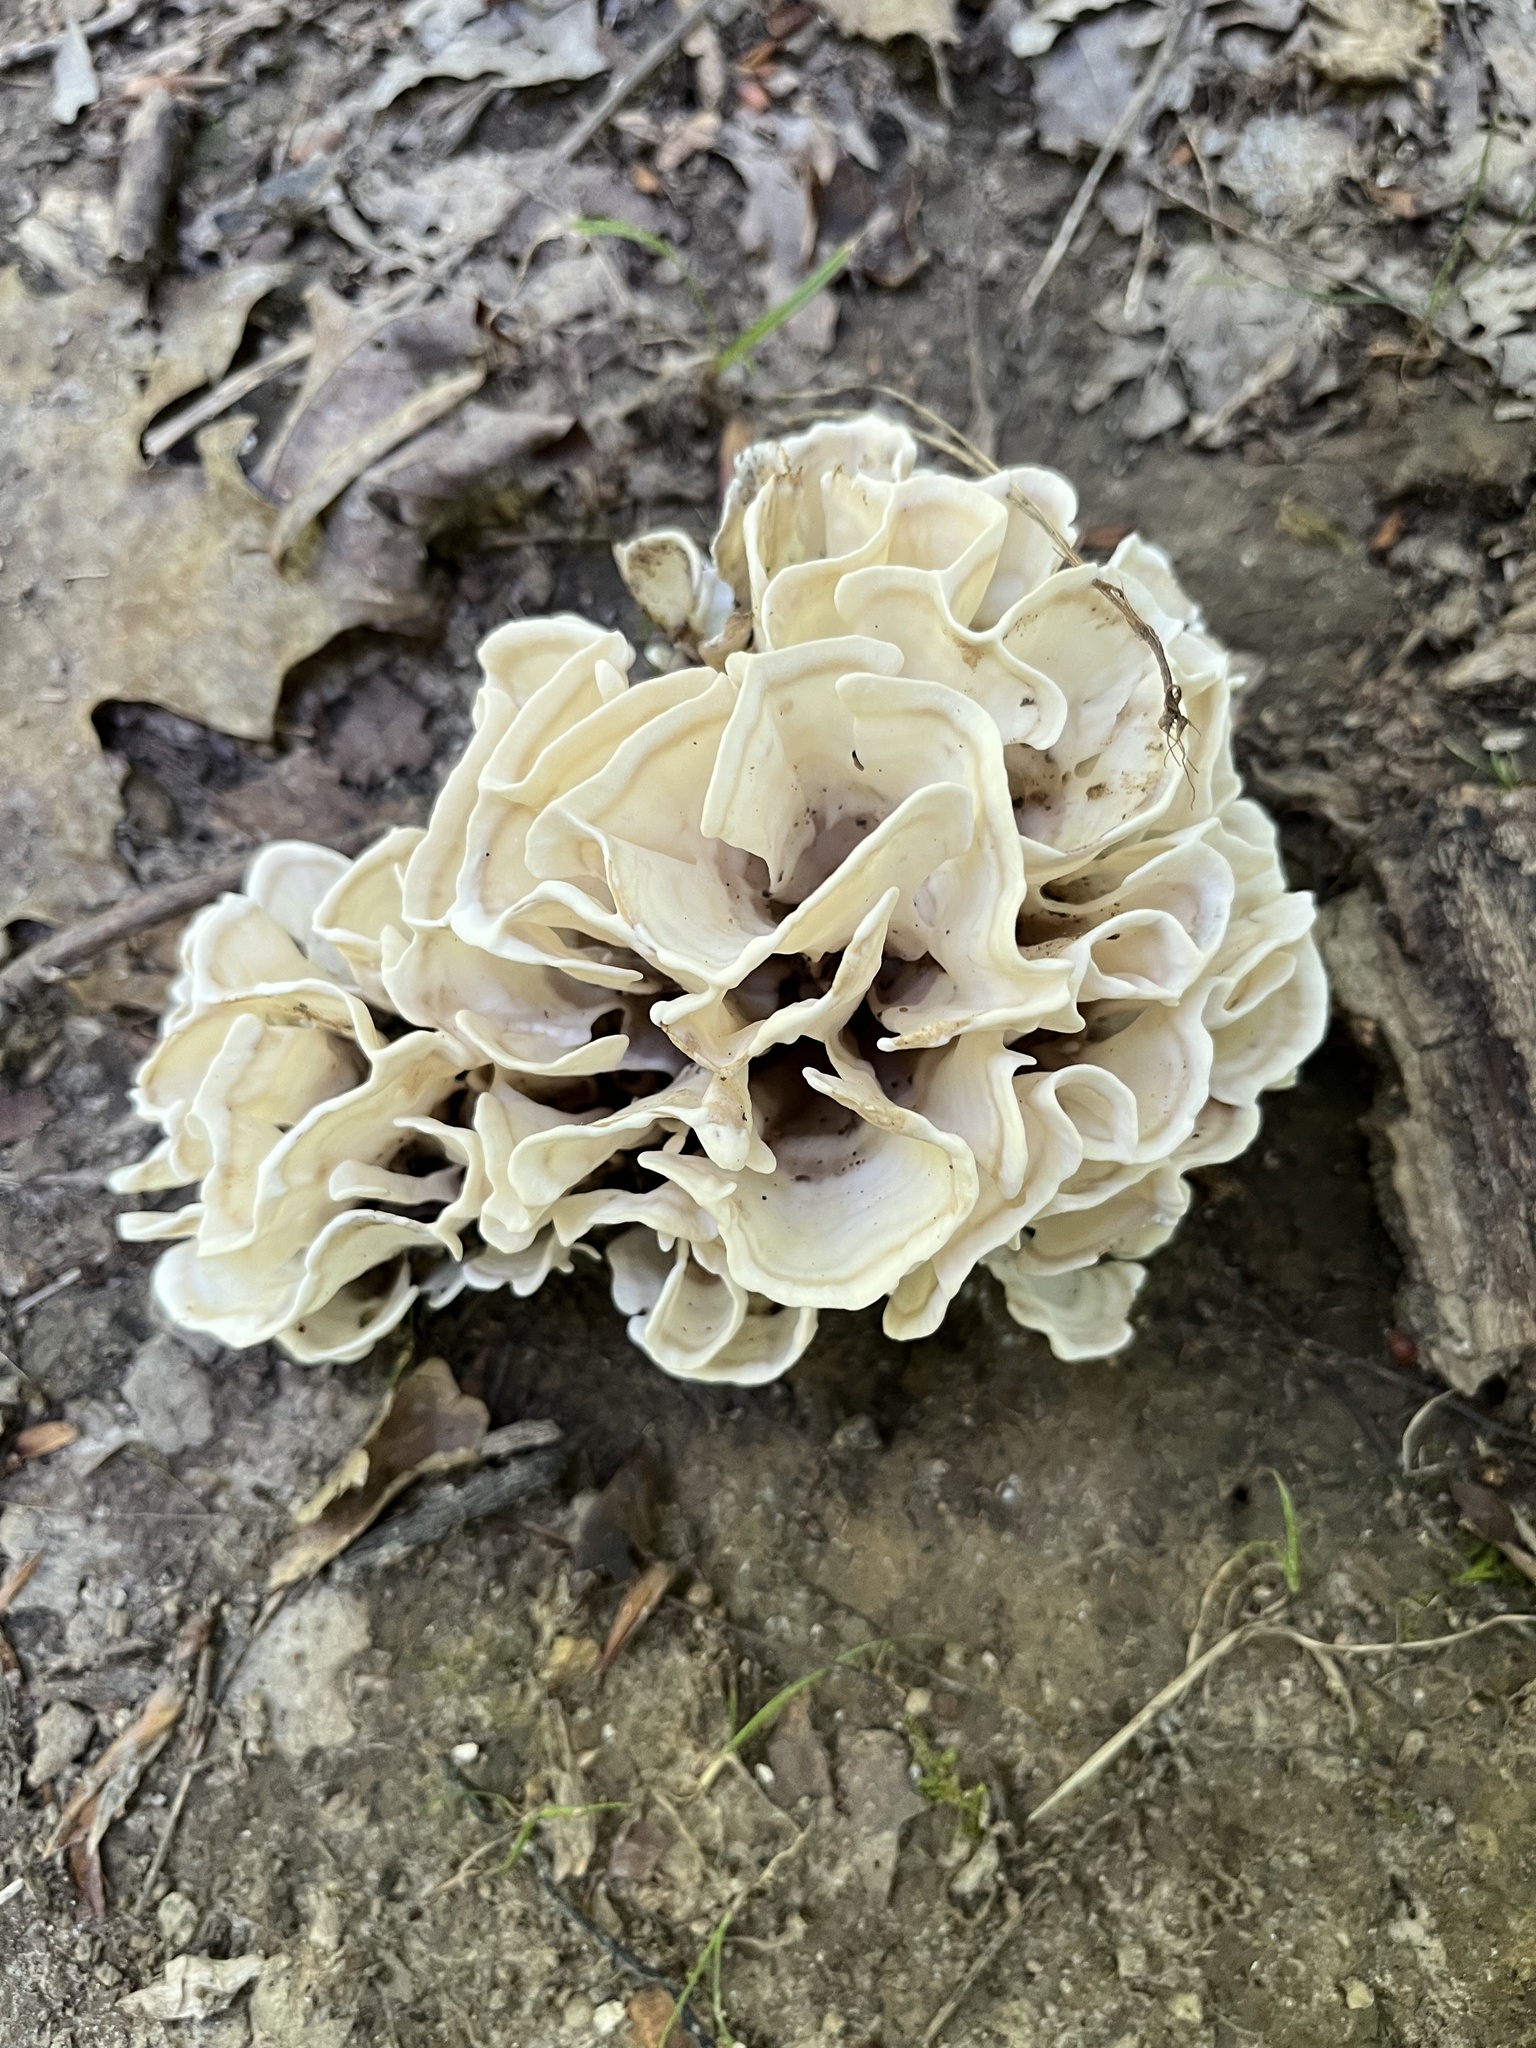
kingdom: Fungi
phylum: Basidiomycota
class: Agaricomycetes
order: Polyporales
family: Sparassidaceae
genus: Sparassis
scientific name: Sparassis spathulata
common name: Eastern cauliflower mushroom
